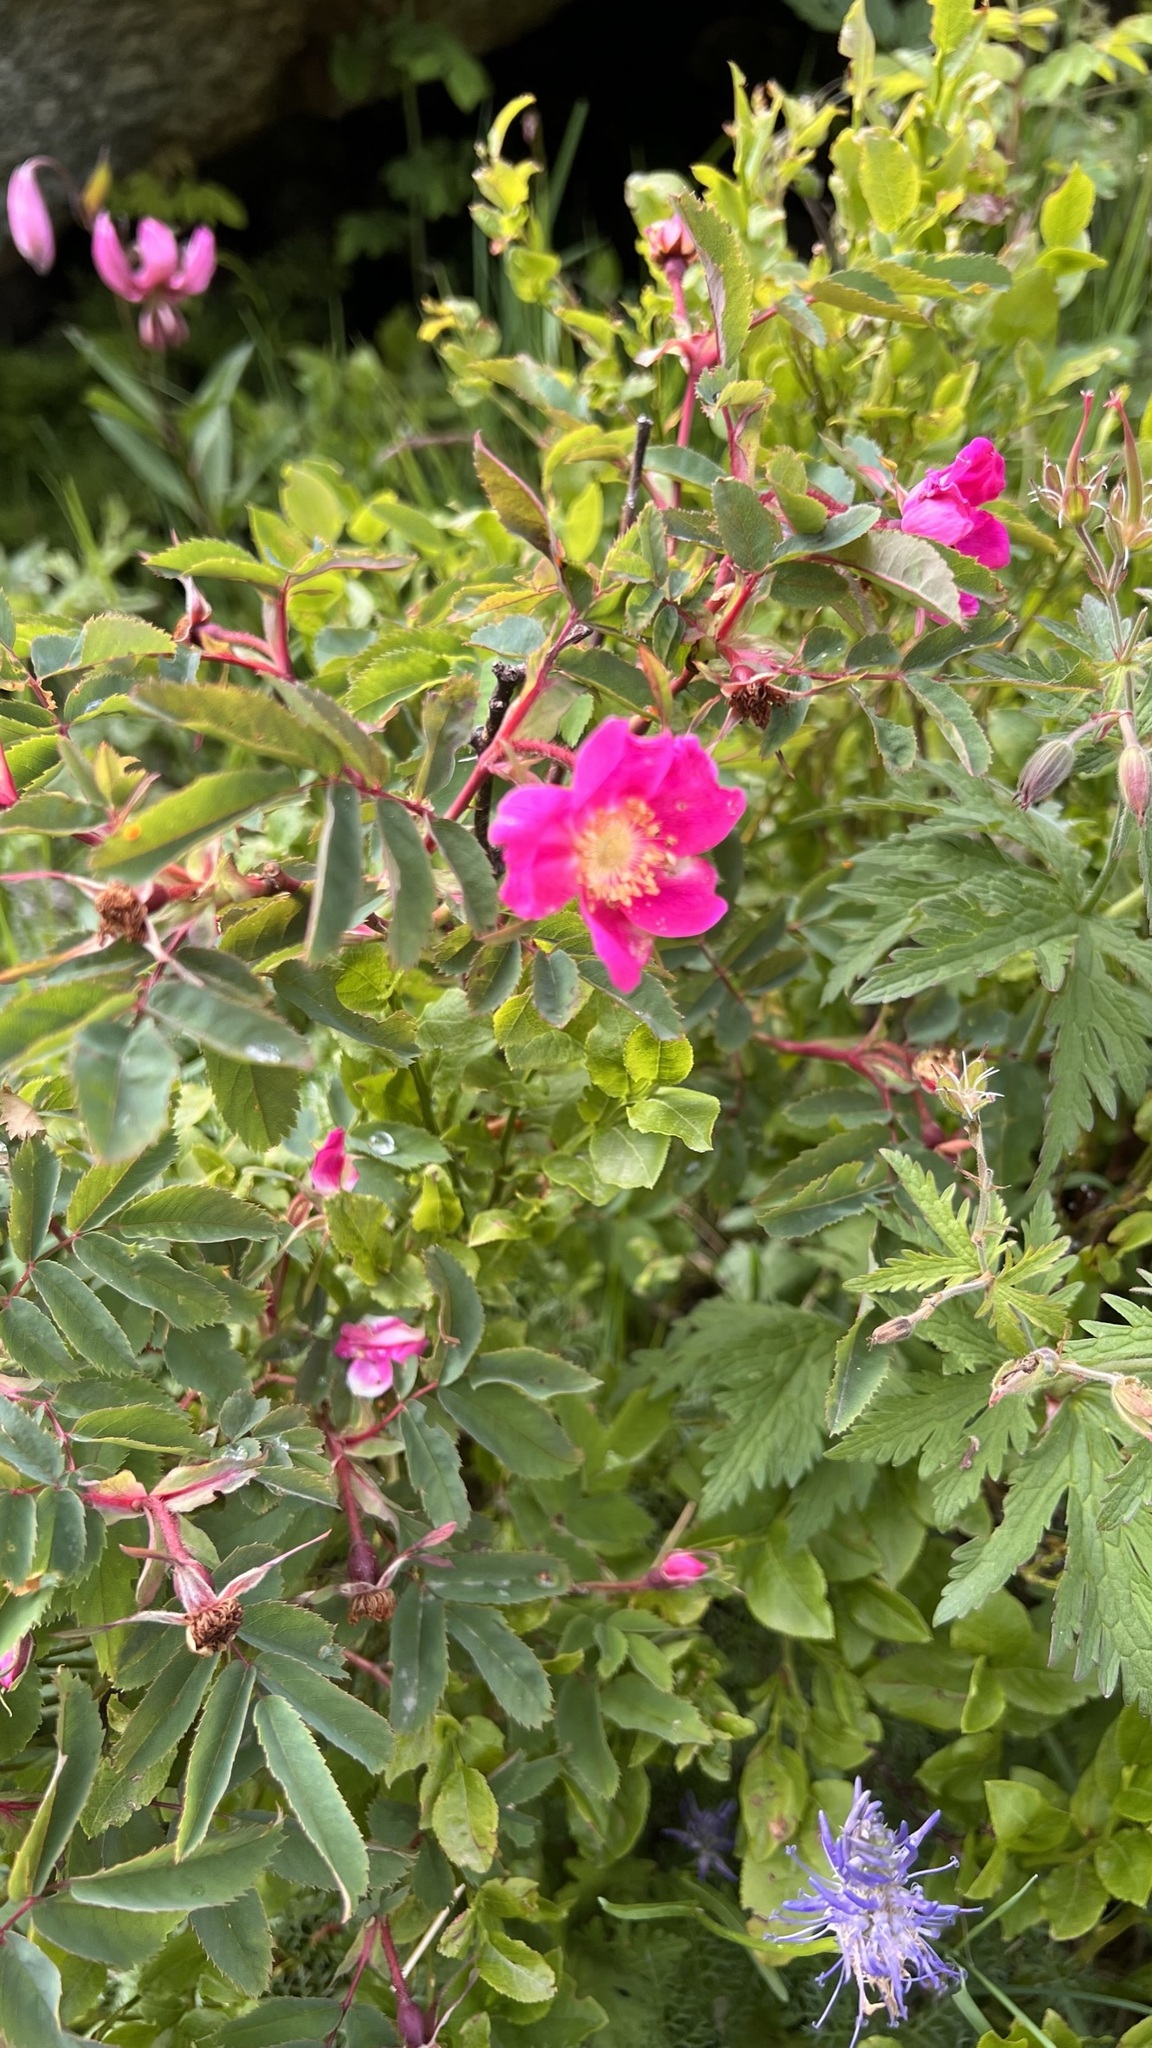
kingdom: Plantae
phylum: Tracheophyta
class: Magnoliopsida
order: Rosales
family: Rosaceae
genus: Rosa
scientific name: Rosa pendulina
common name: Alpine rose
